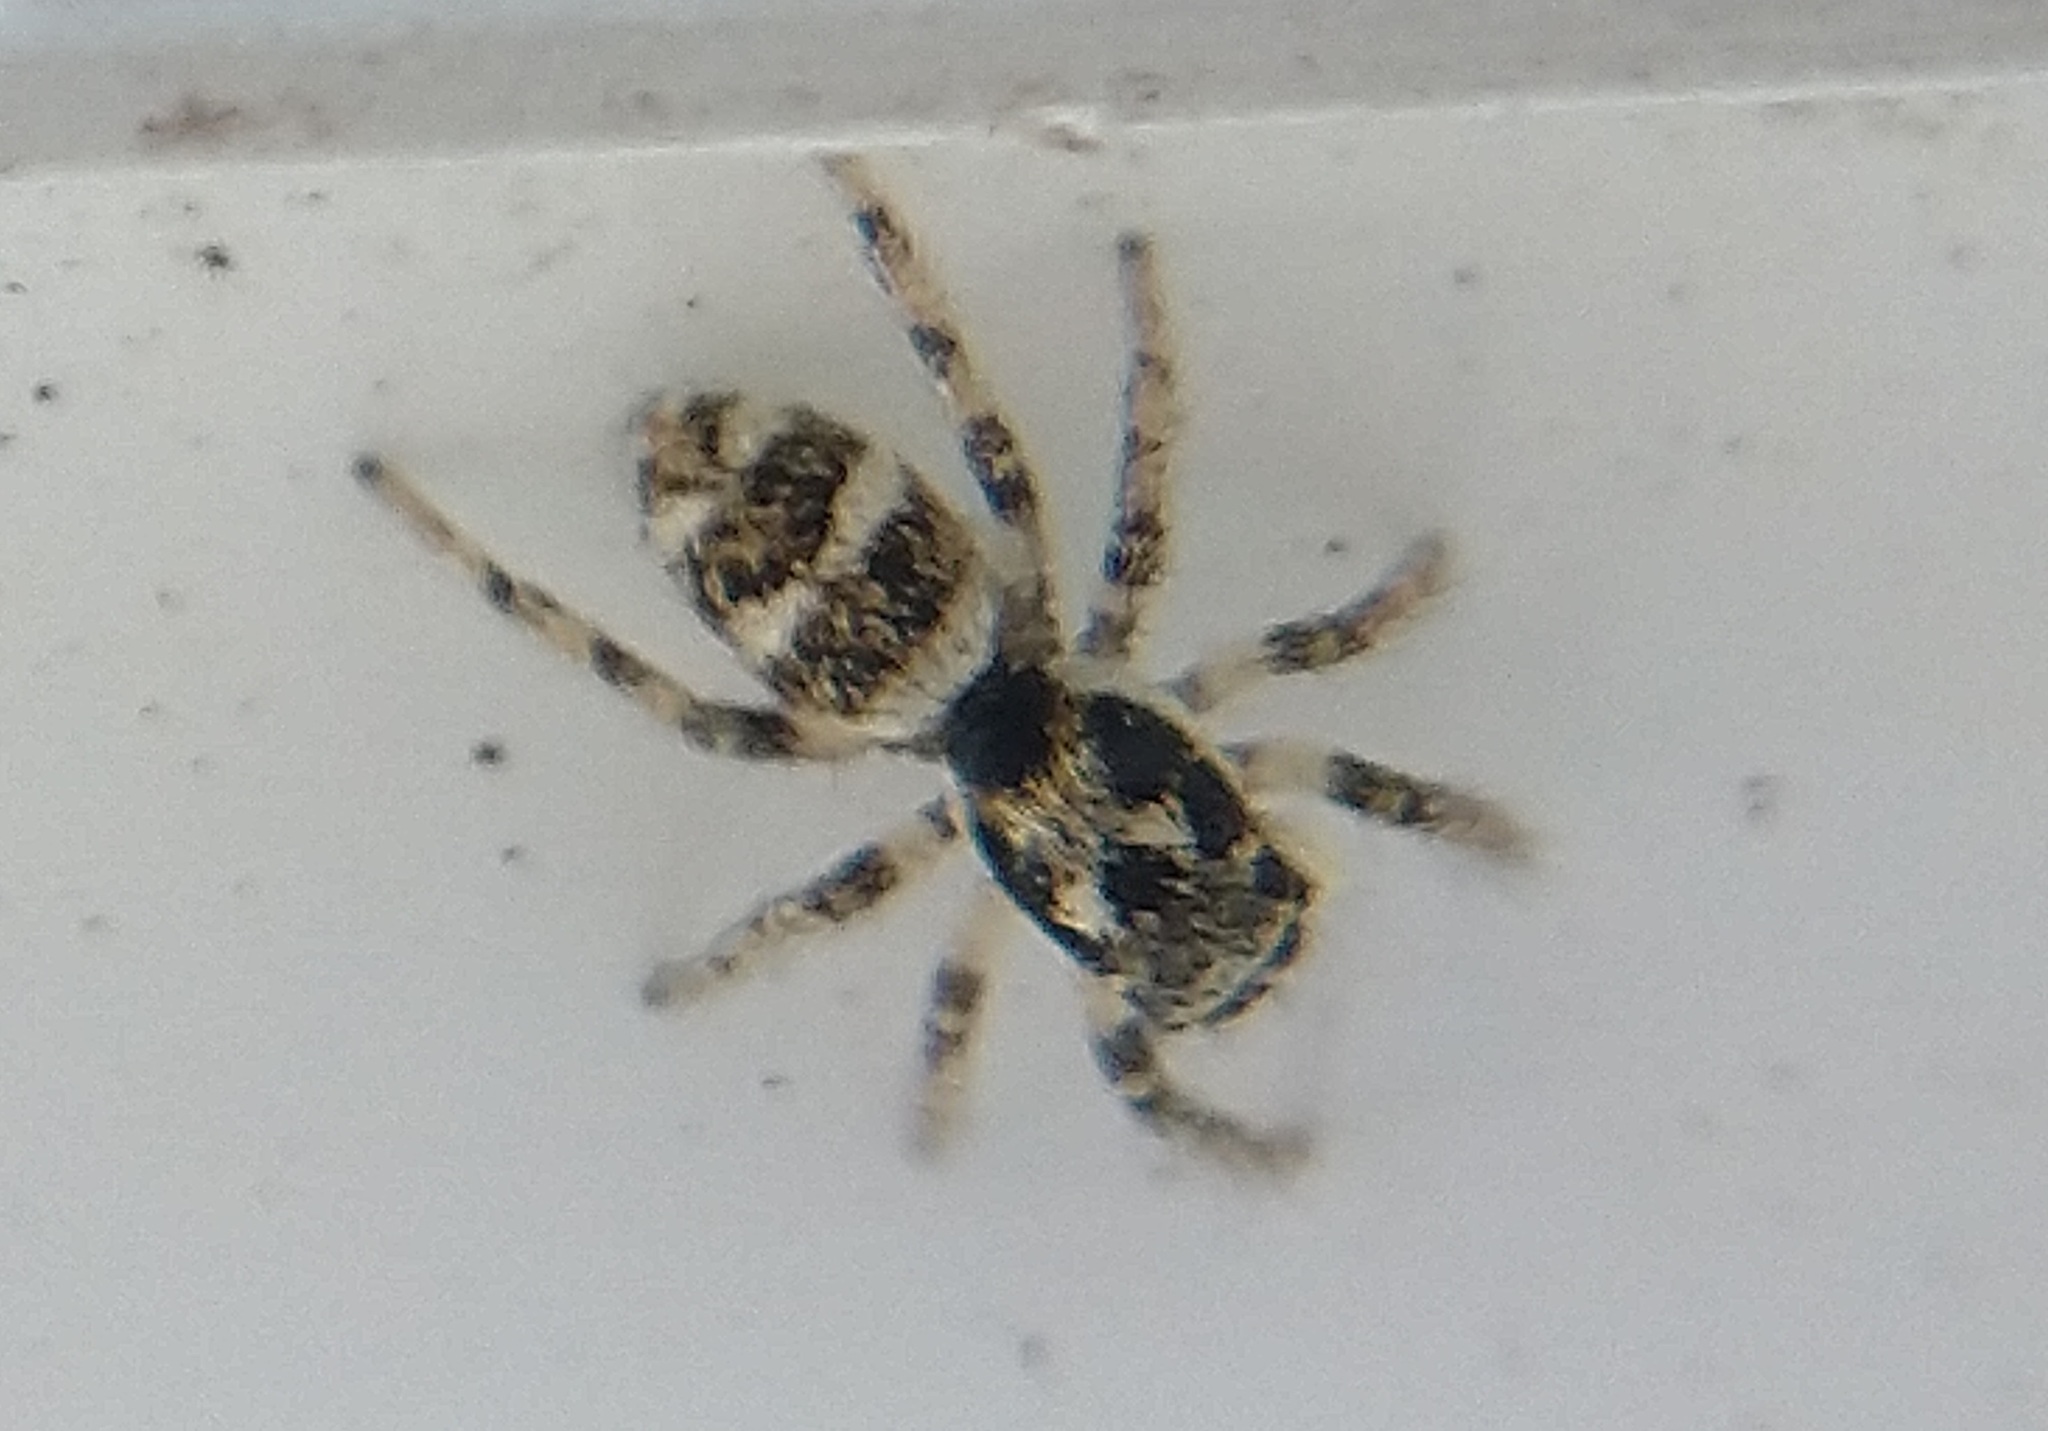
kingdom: Animalia
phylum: Arthropoda
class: Arachnida
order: Araneae
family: Salticidae
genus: Salticus
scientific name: Salticus scenicus
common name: Zebra jumper
